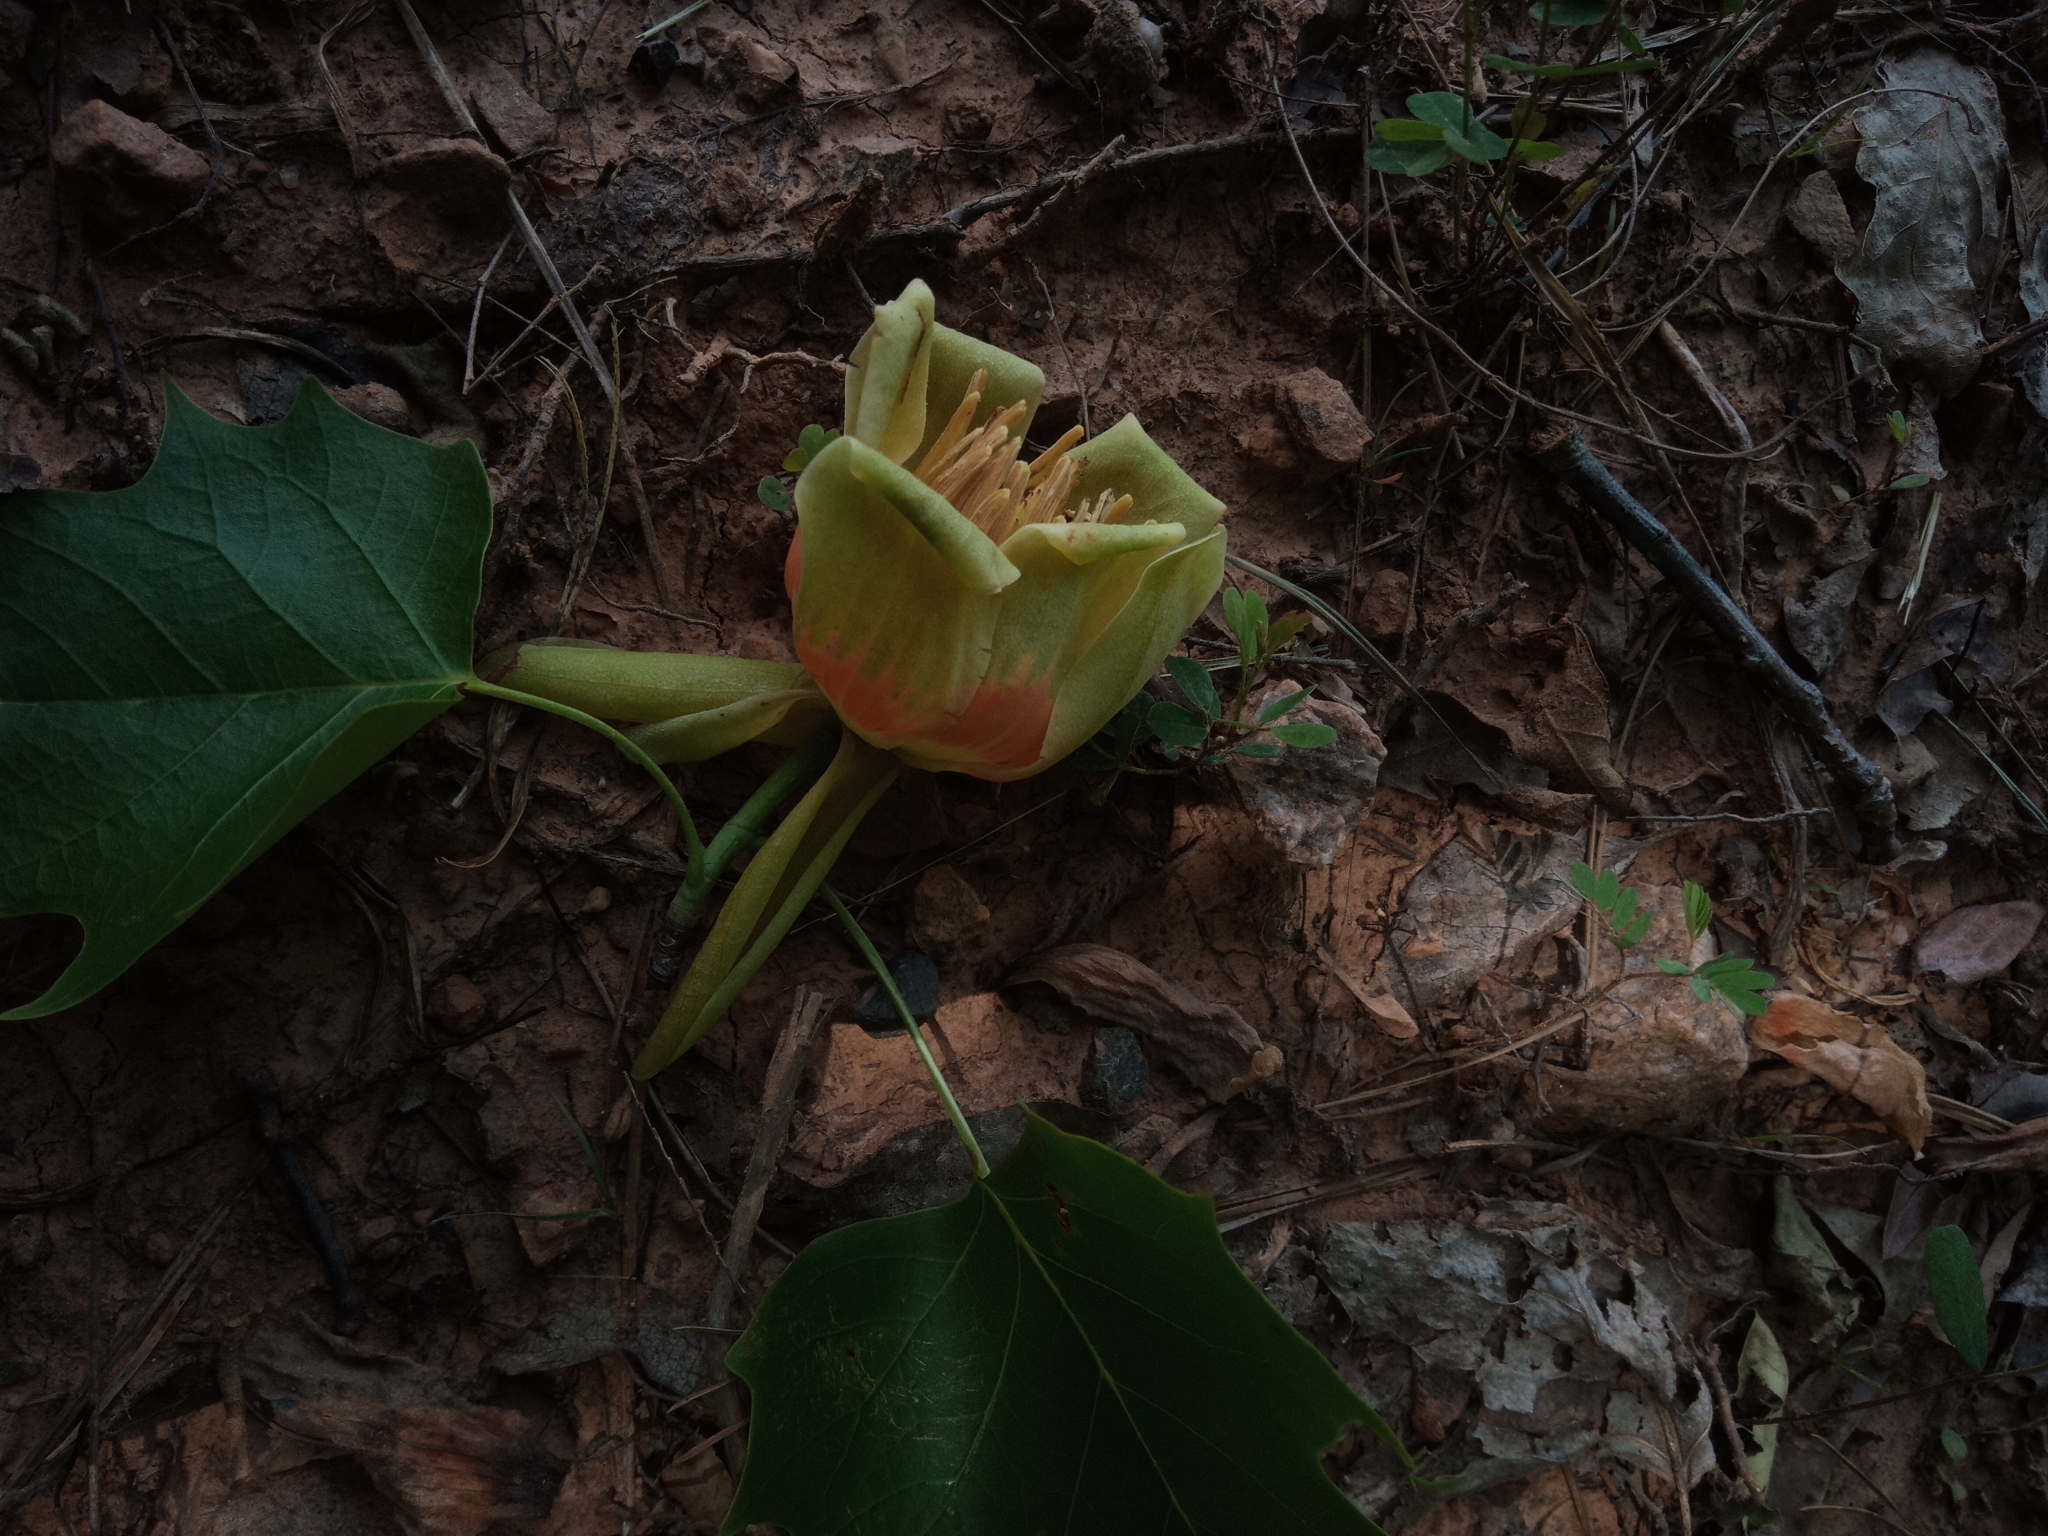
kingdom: Plantae
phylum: Tracheophyta
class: Magnoliopsida
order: Magnoliales
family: Magnoliaceae
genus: Liriodendron
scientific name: Liriodendron tulipifera
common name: Tulip tree
